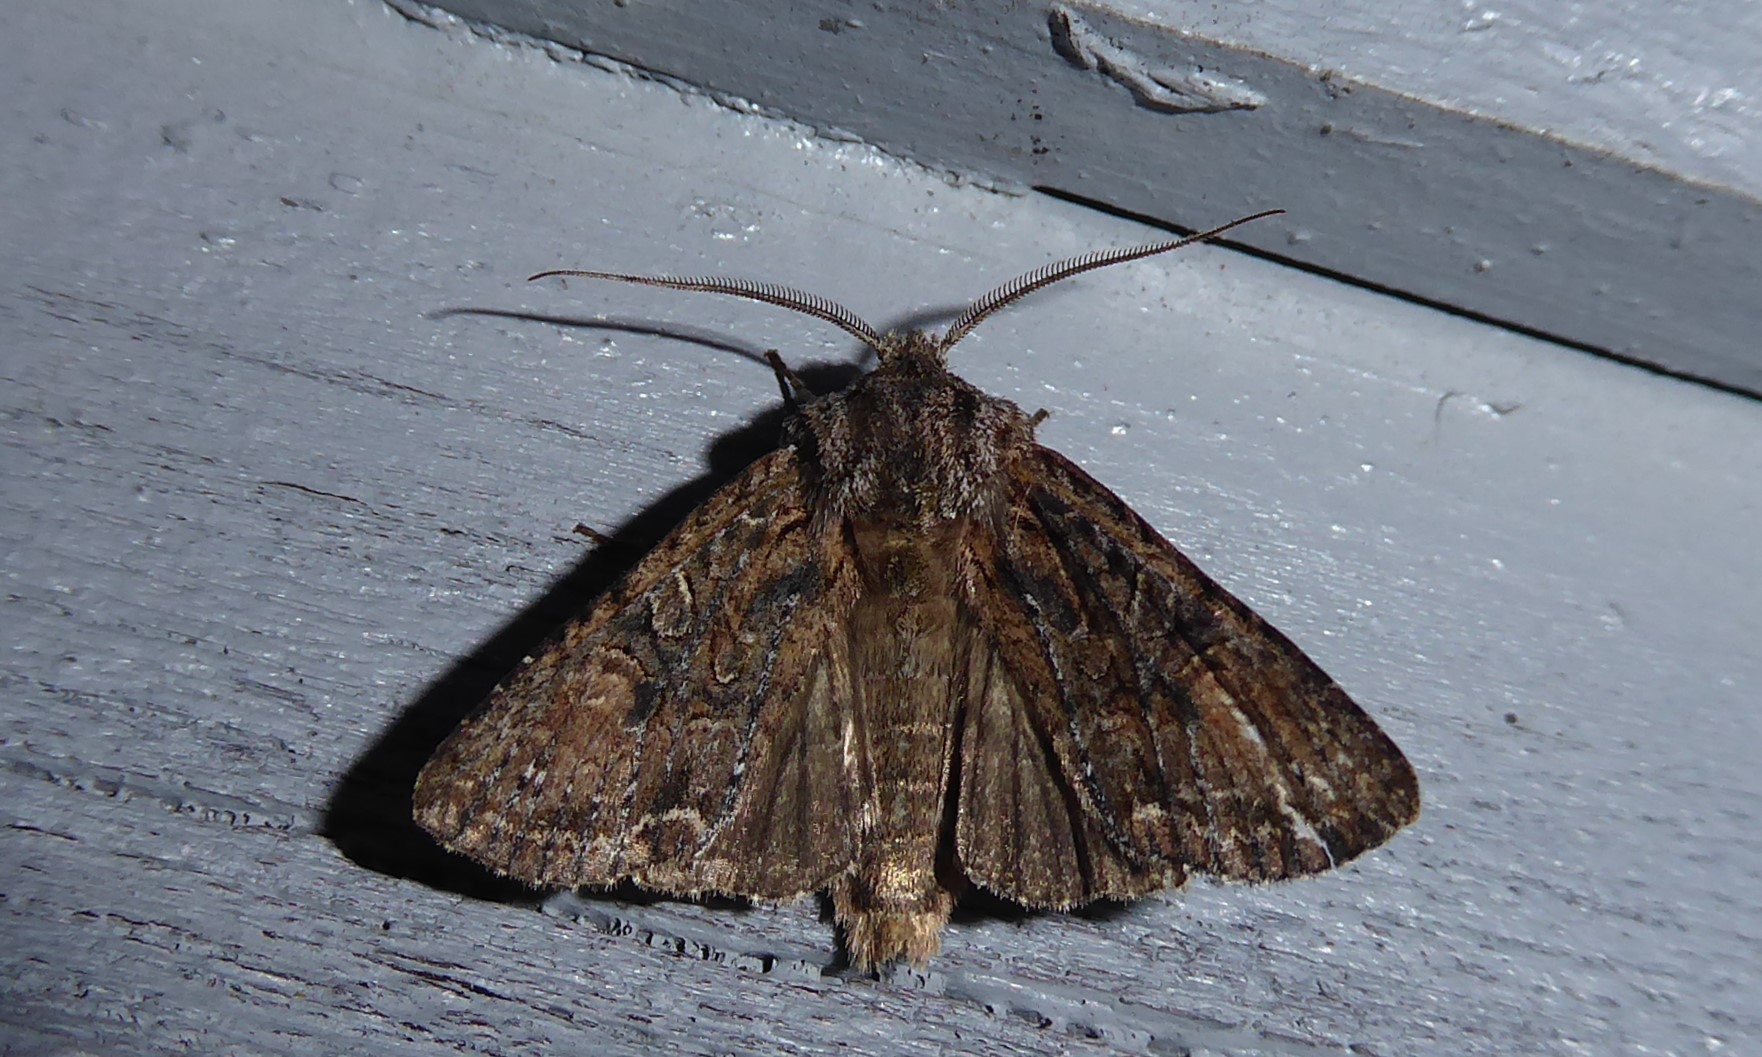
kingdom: Animalia
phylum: Arthropoda
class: Insecta
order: Lepidoptera
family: Noctuidae
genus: Ichneutica
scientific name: Ichneutica mutans
